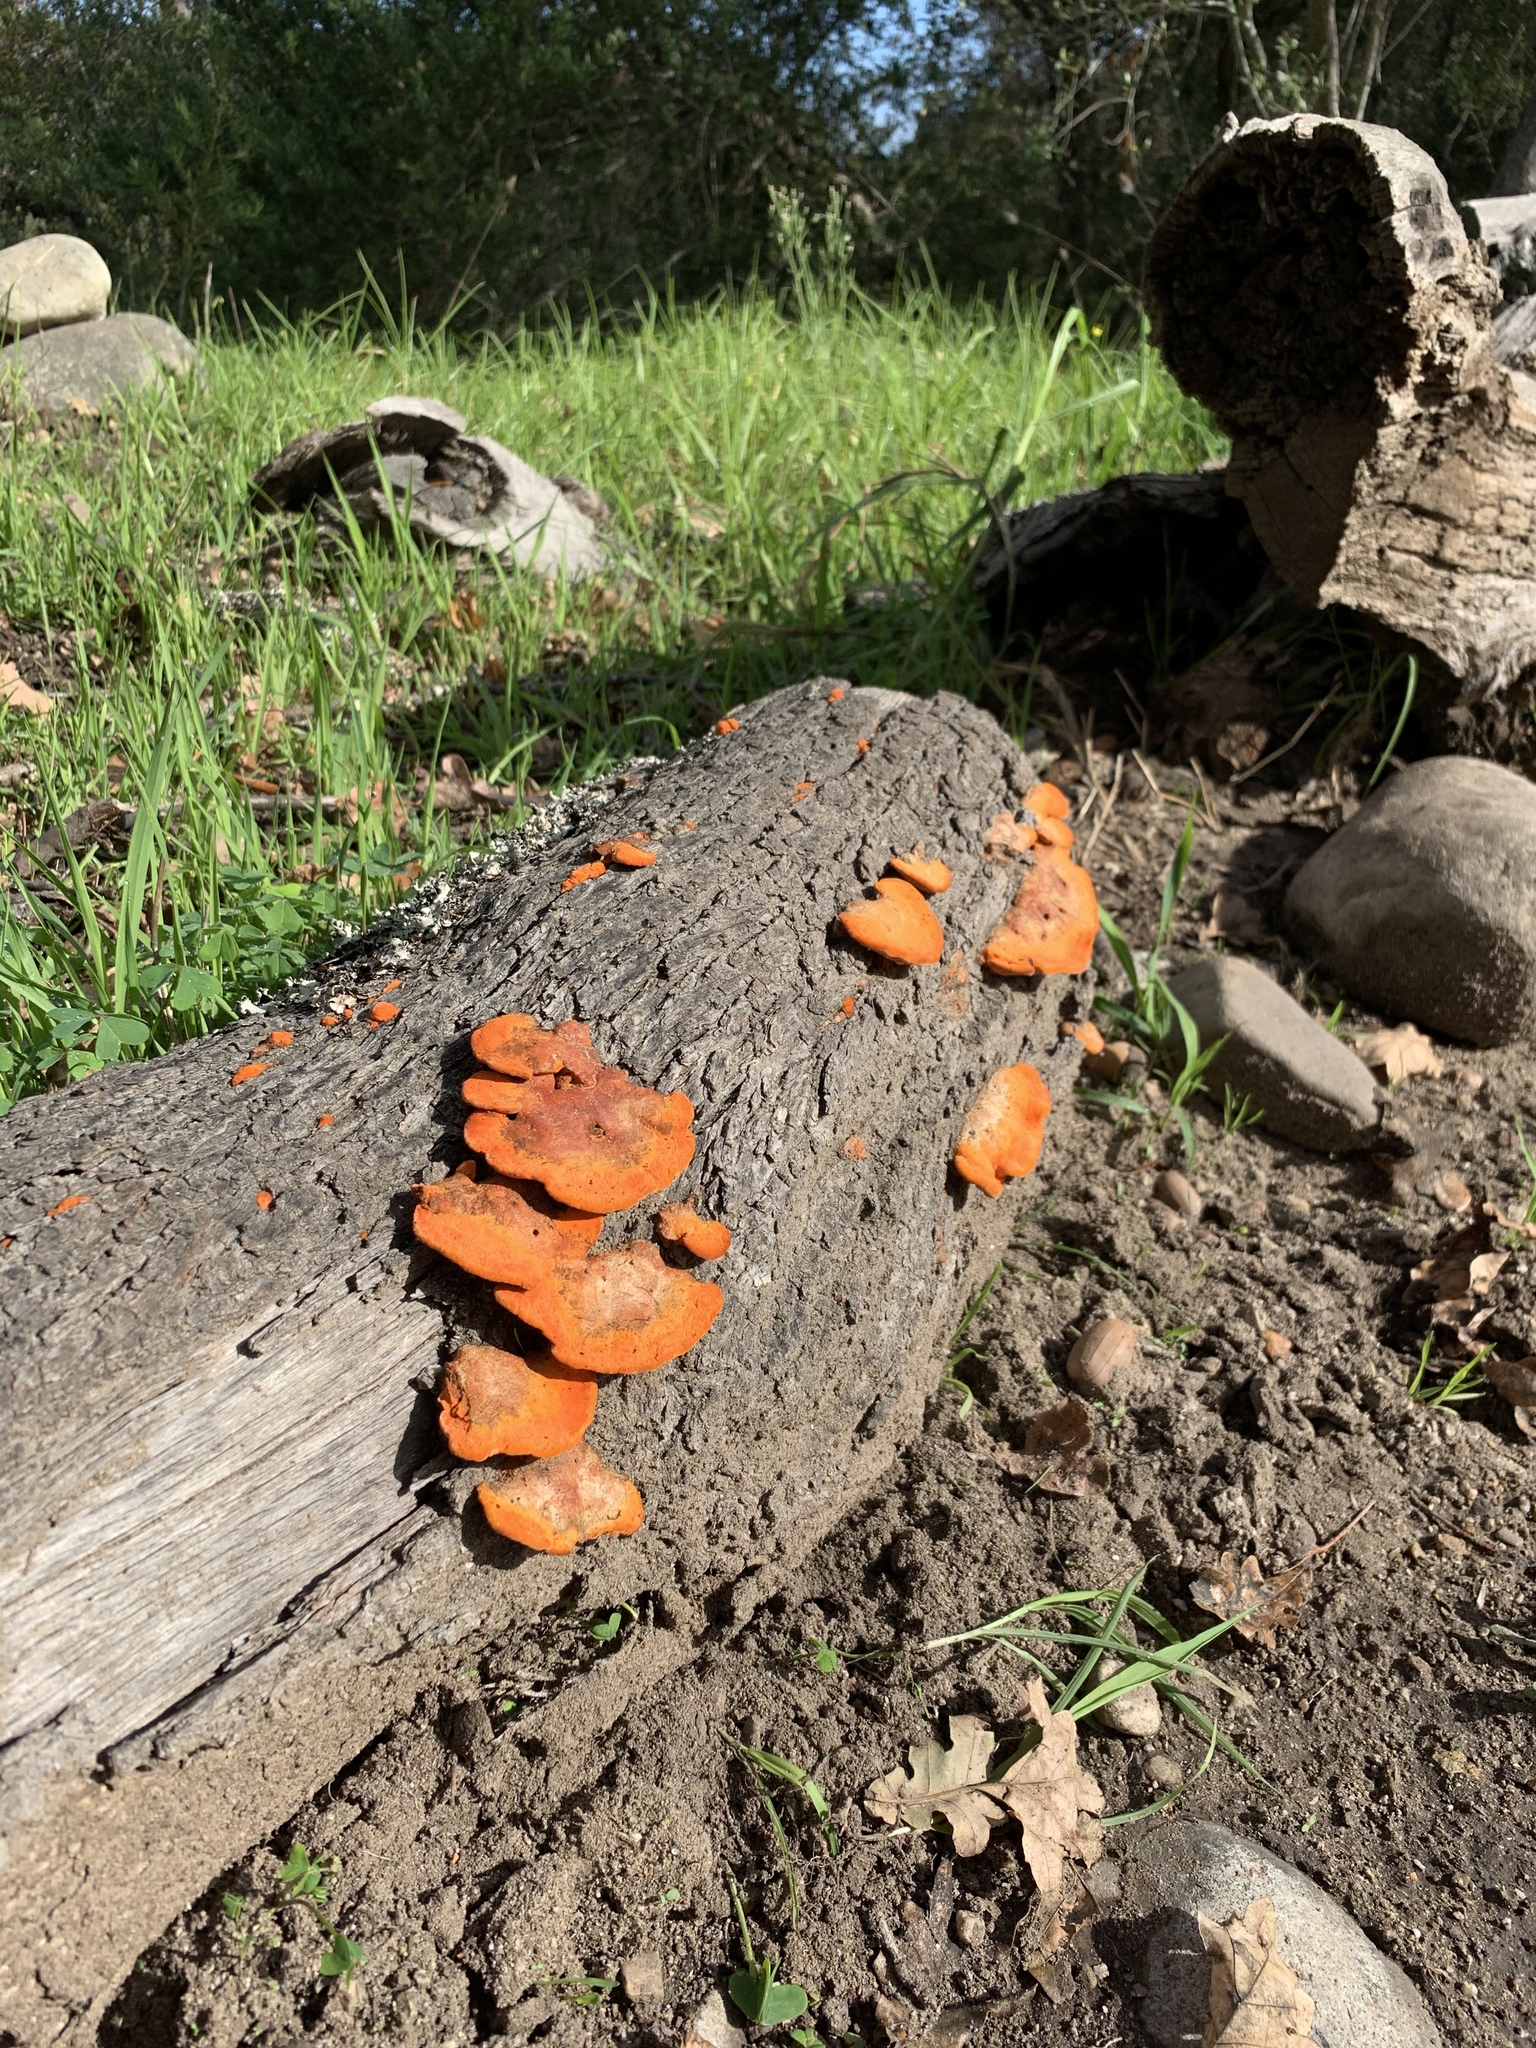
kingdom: Fungi
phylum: Basidiomycota
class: Agaricomycetes
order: Polyporales
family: Polyporaceae
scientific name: Polyporaceae
